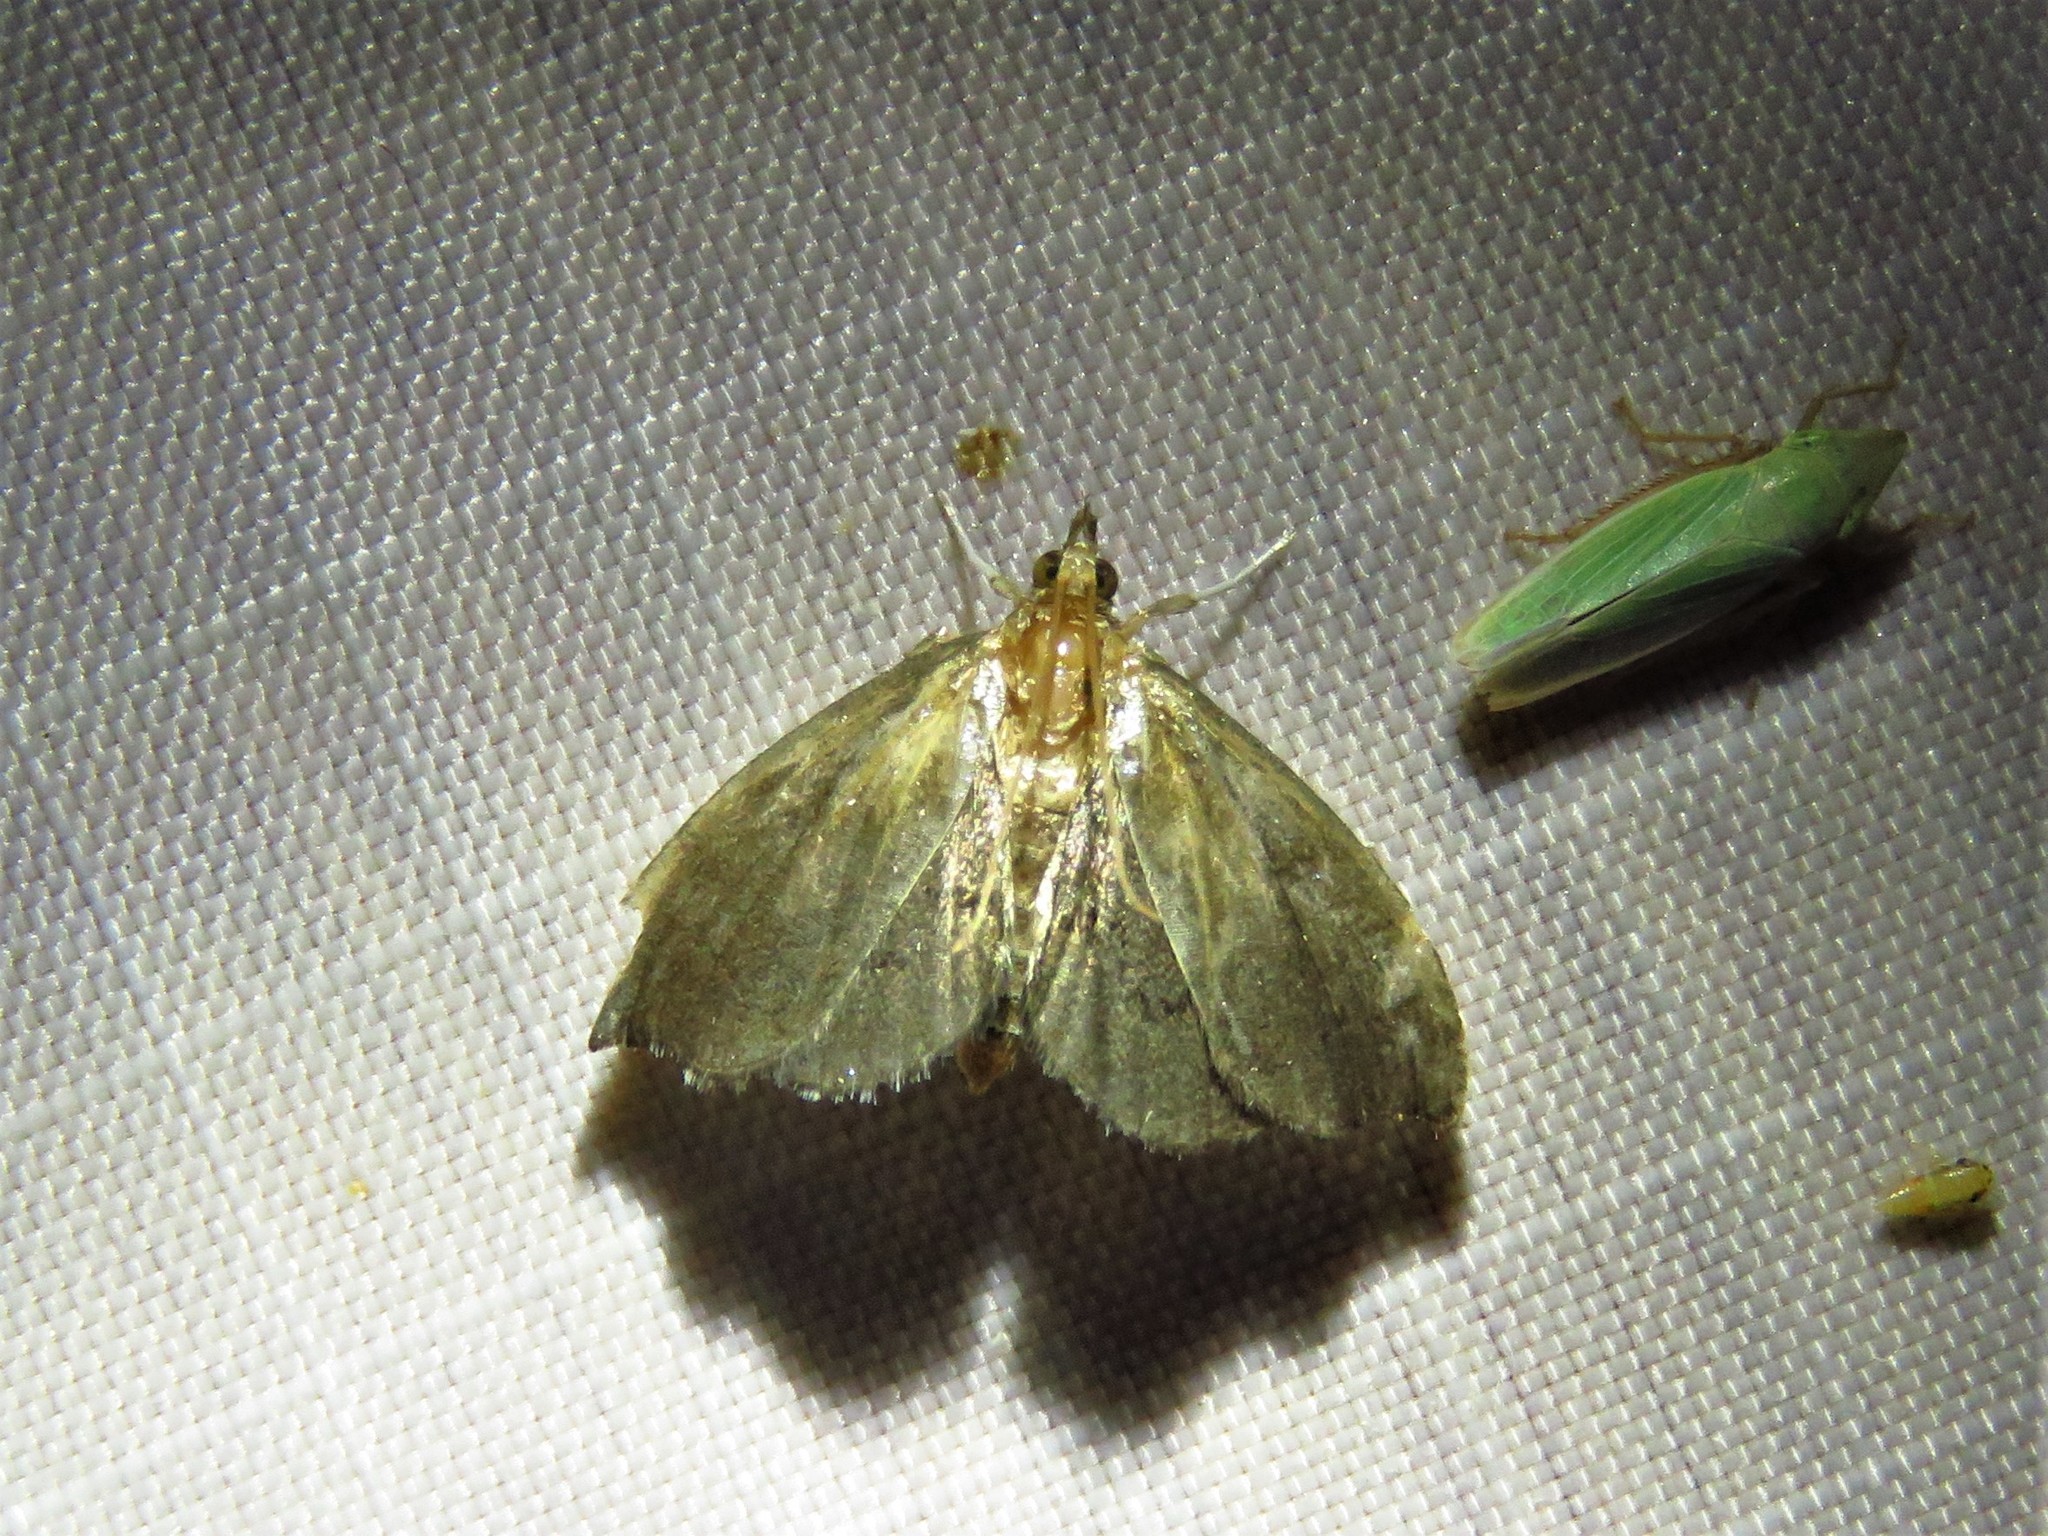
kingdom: Animalia
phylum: Arthropoda
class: Insecta
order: Lepidoptera
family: Crambidae
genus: Perispasta
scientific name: Perispasta caeculalis
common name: Titian peale's moth
